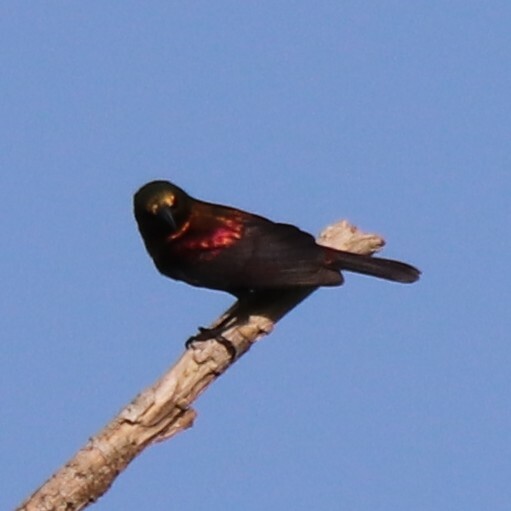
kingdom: Animalia
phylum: Chordata
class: Aves
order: Passeriformes
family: Nectariniidae
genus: Cinnyris
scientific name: Cinnyris cupreus
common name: Copper sunbird
